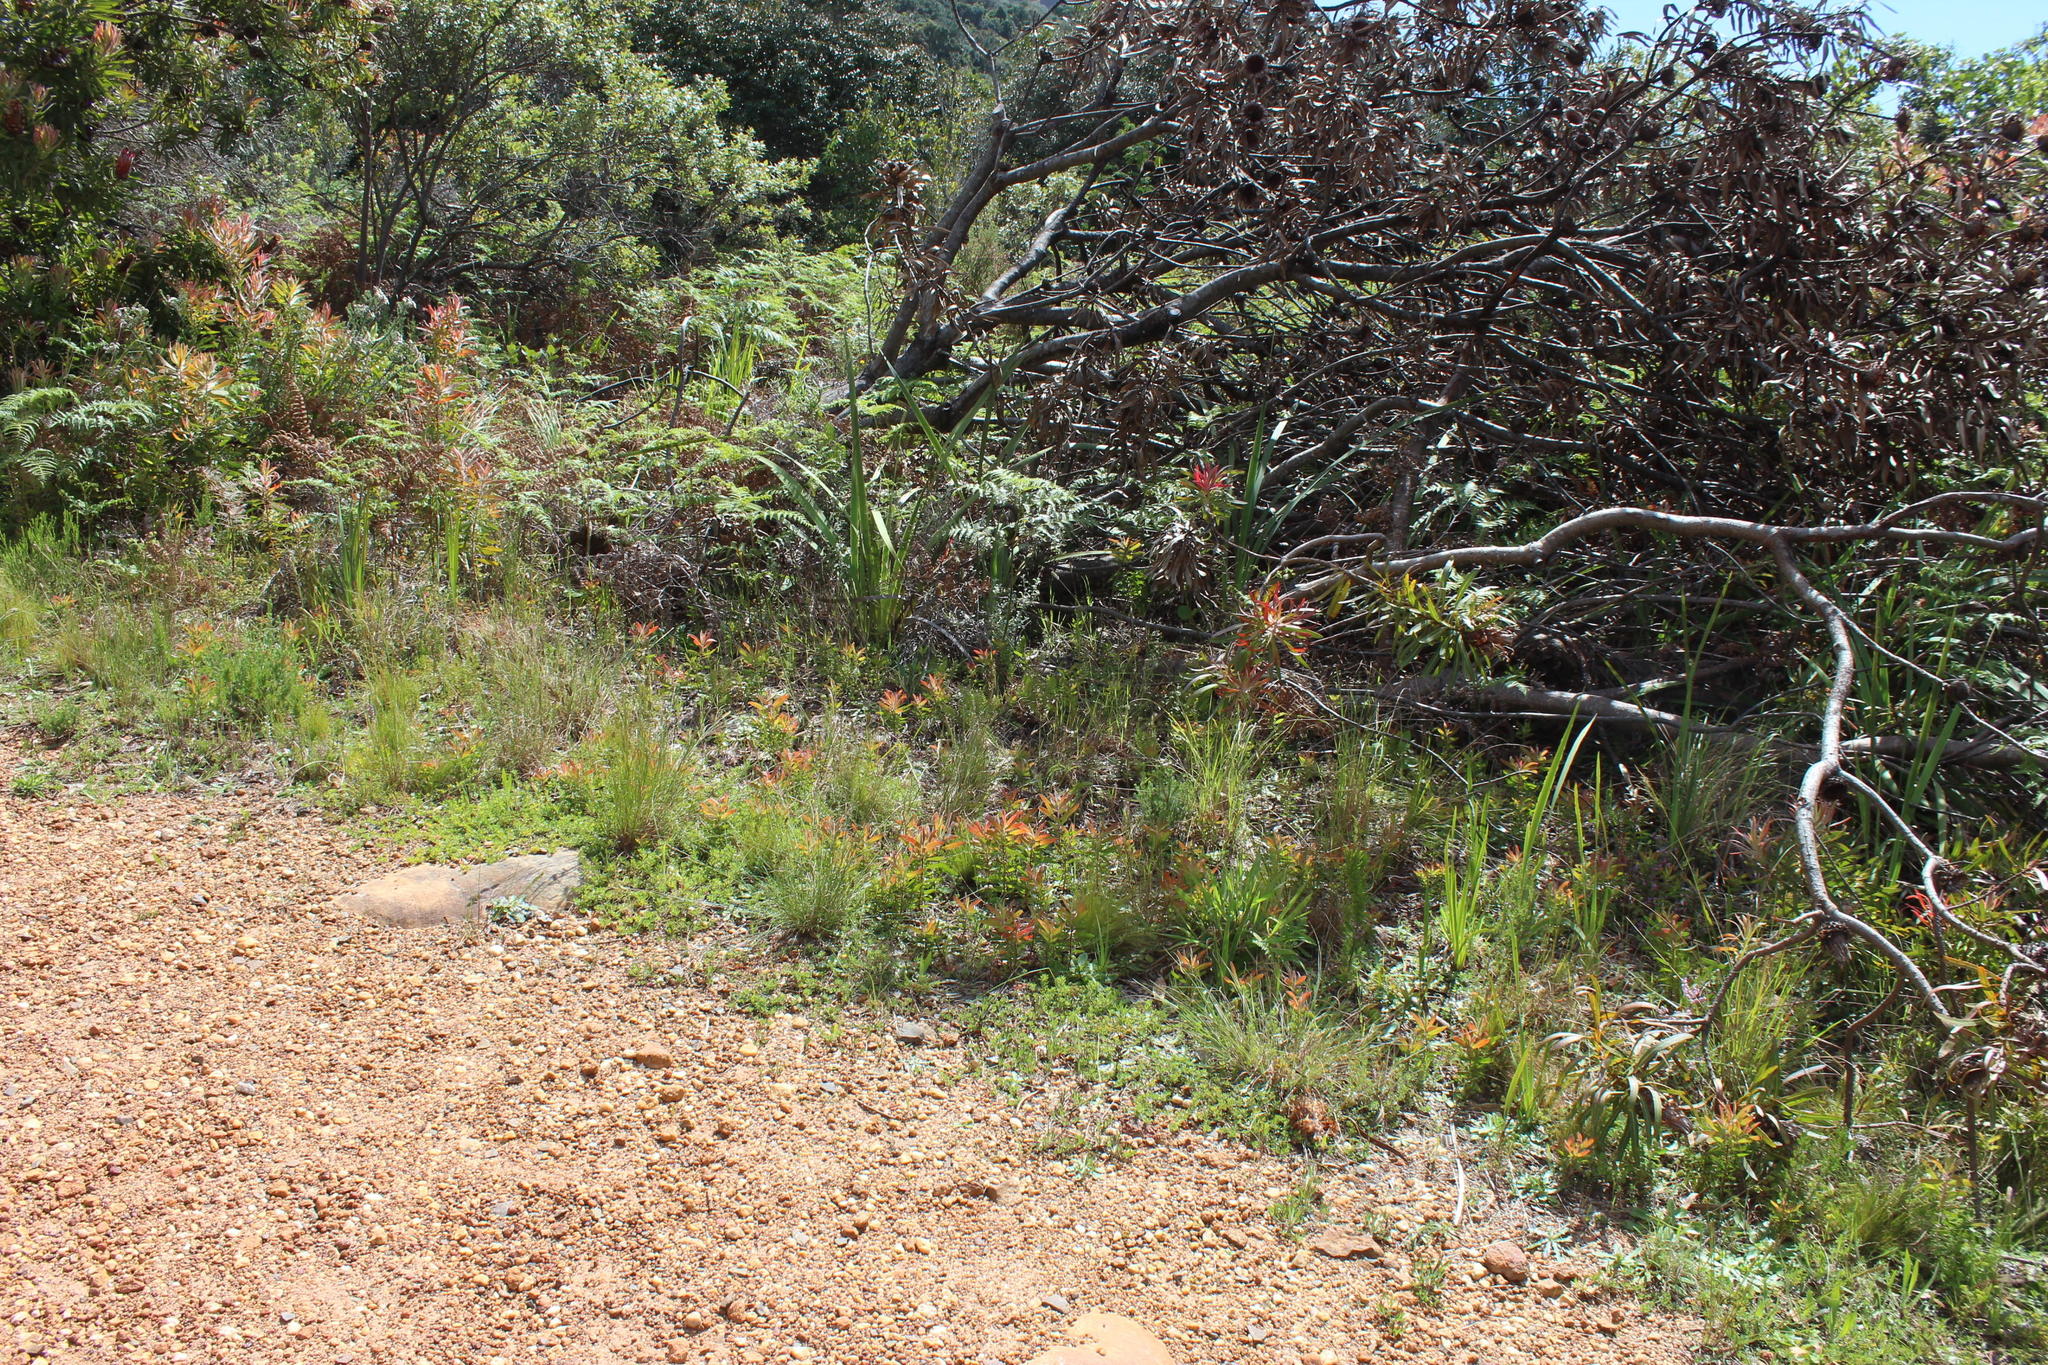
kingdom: Plantae
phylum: Tracheophyta
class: Magnoliopsida
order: Proteales
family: Proteaceae
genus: Protea
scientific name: Protea neriifolia
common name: Blue sugarbush
